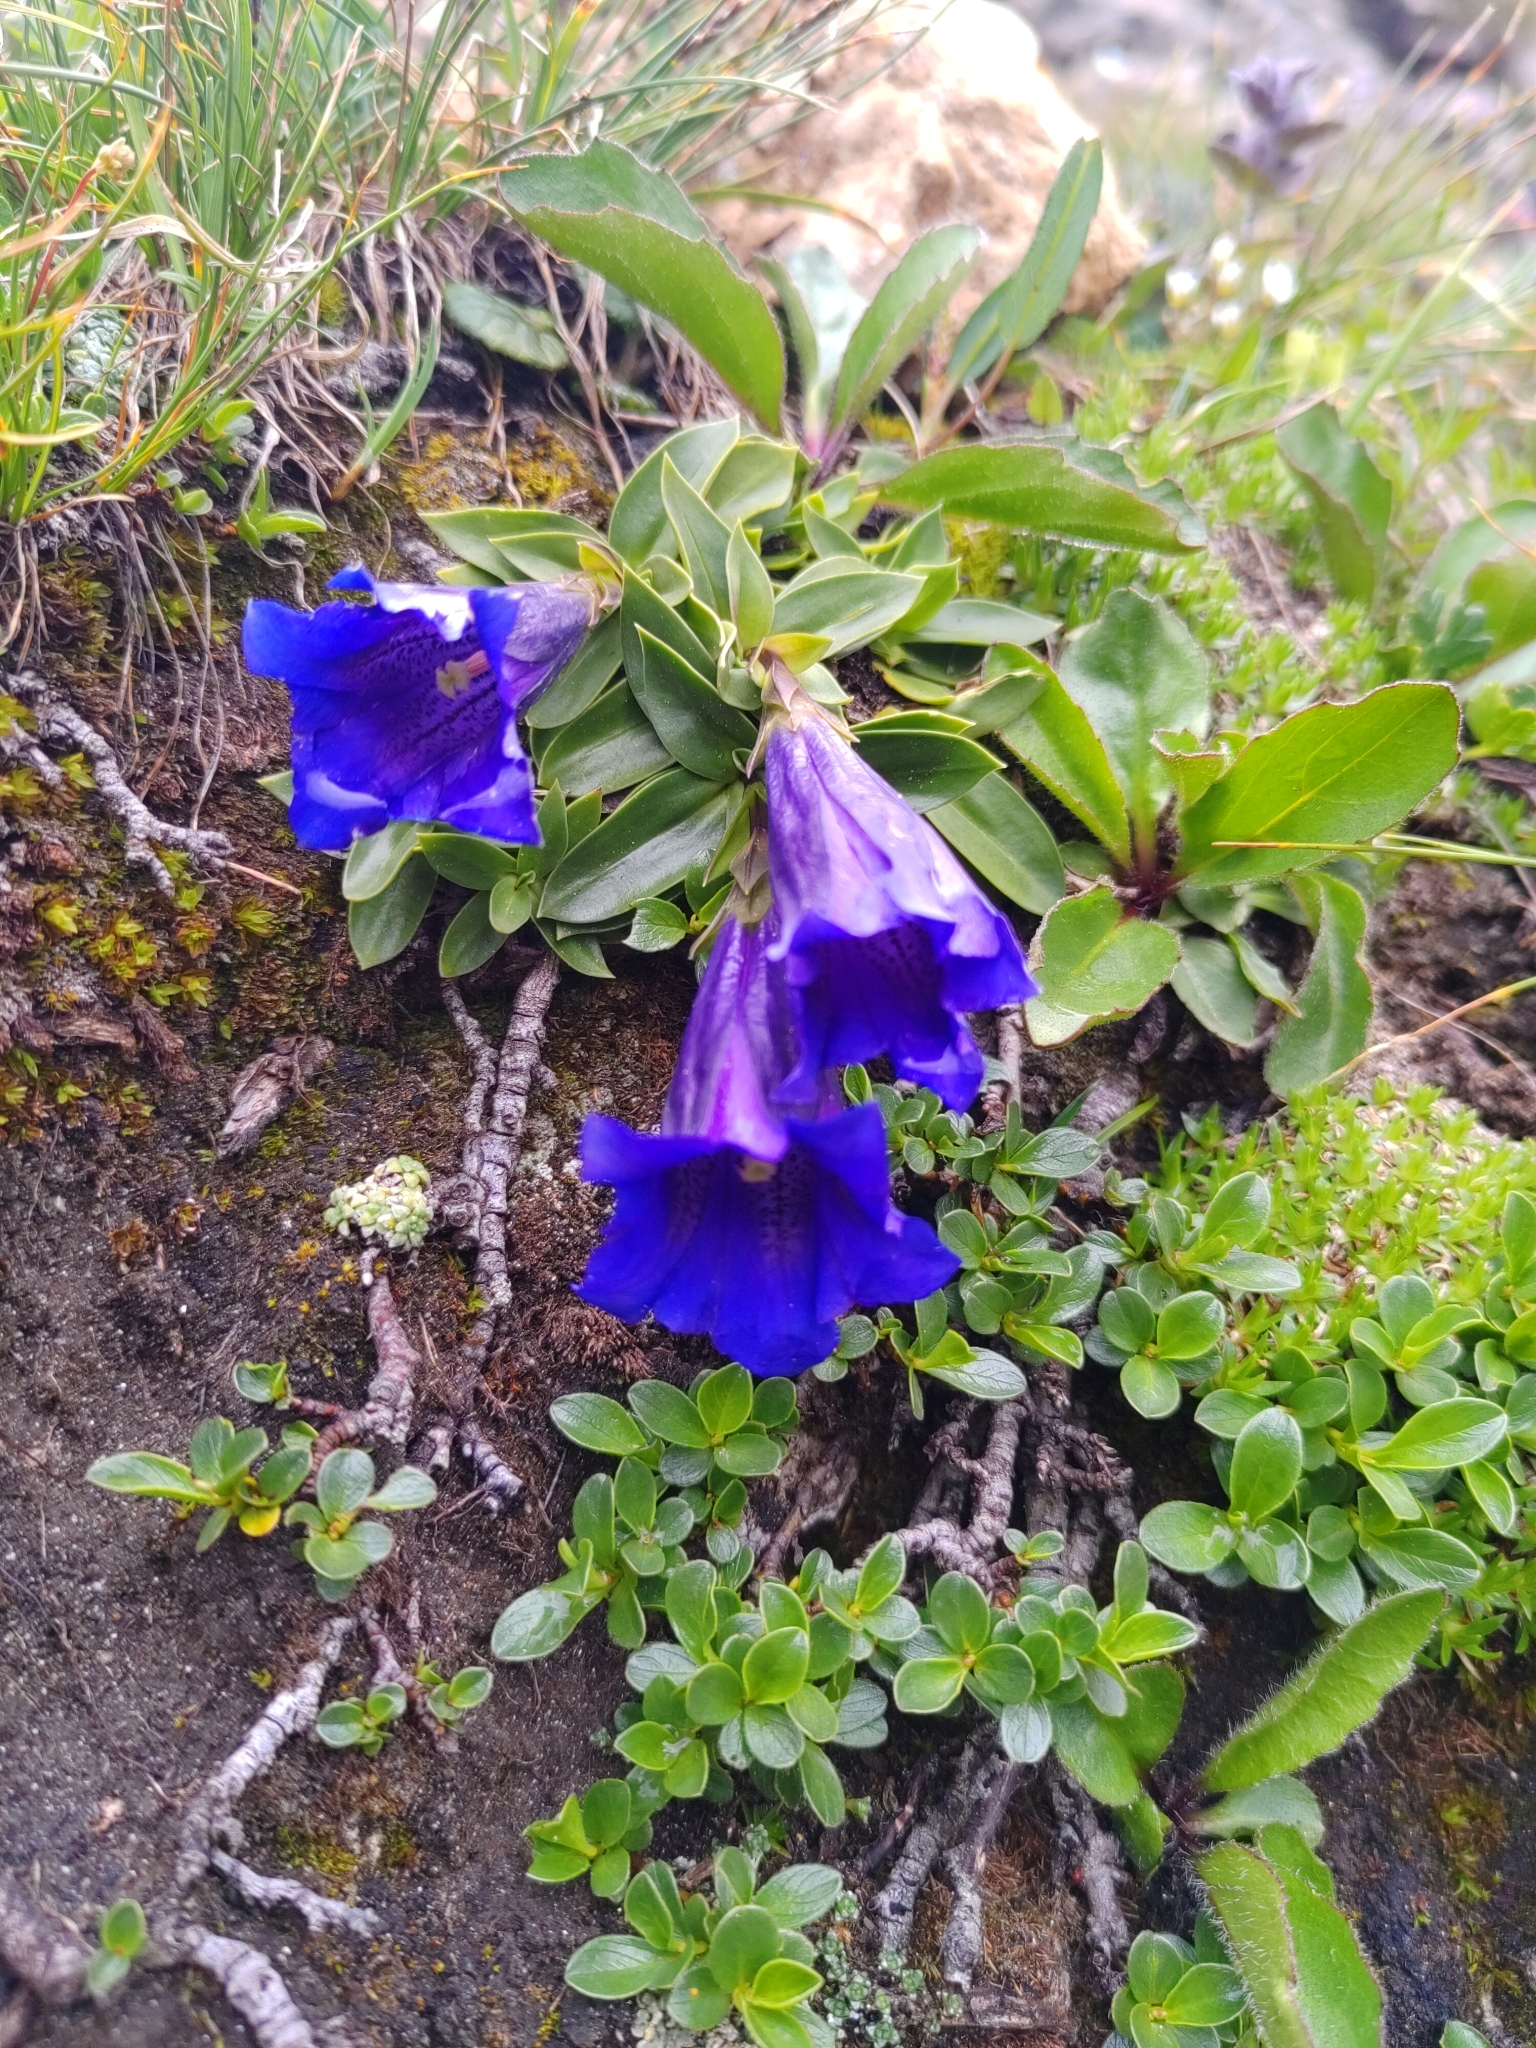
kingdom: Plantae
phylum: Tracheophyta
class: Magnoliopsida
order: Gentianales
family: Gentianaceae
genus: Gentiana
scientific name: Gentiana clusii
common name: Trumpet gentian
